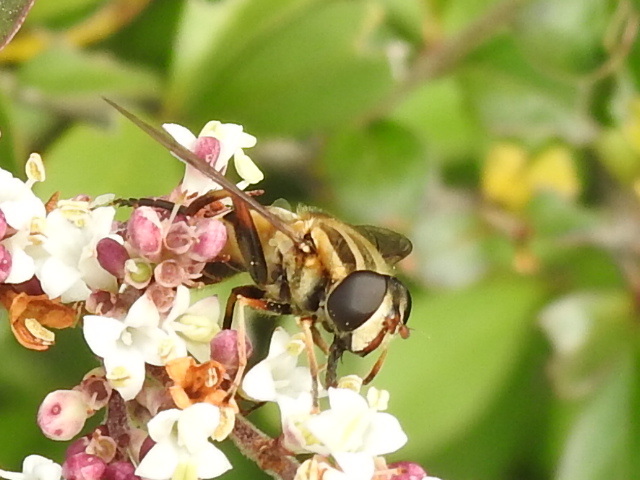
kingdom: Animalia
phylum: Arthropoda
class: Insecta
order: Diptera
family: Syrphidae
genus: Helophilus
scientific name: Helophilus fasciatus
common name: Narrow-headed marsh fly
